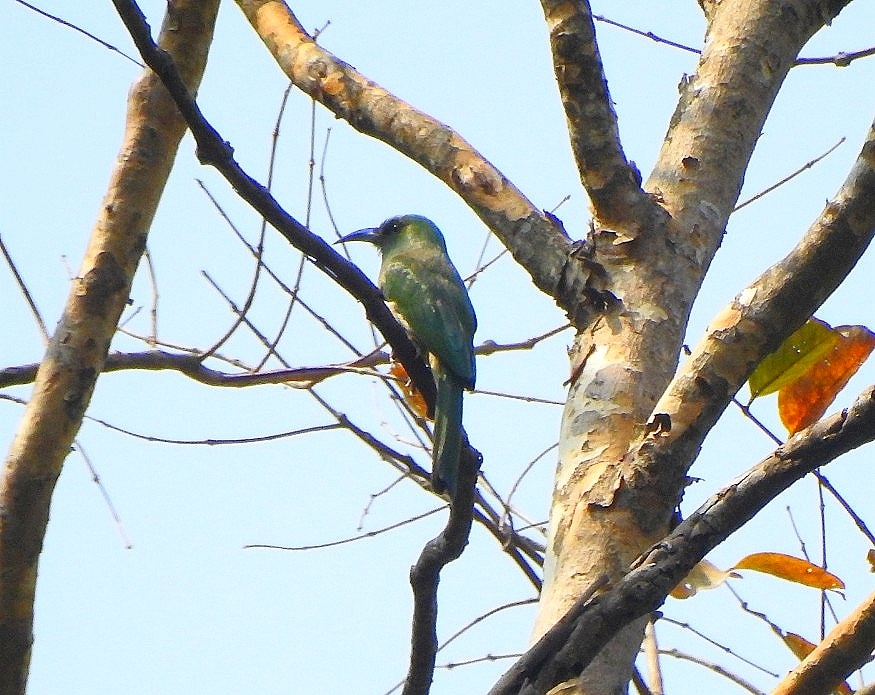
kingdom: Animalia
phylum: Chordata
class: Aves
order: Coraciiformes
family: Meropidae
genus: Nyctyornis
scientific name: Nyctyornis athertoni
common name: Blue-bearded bee-eater
